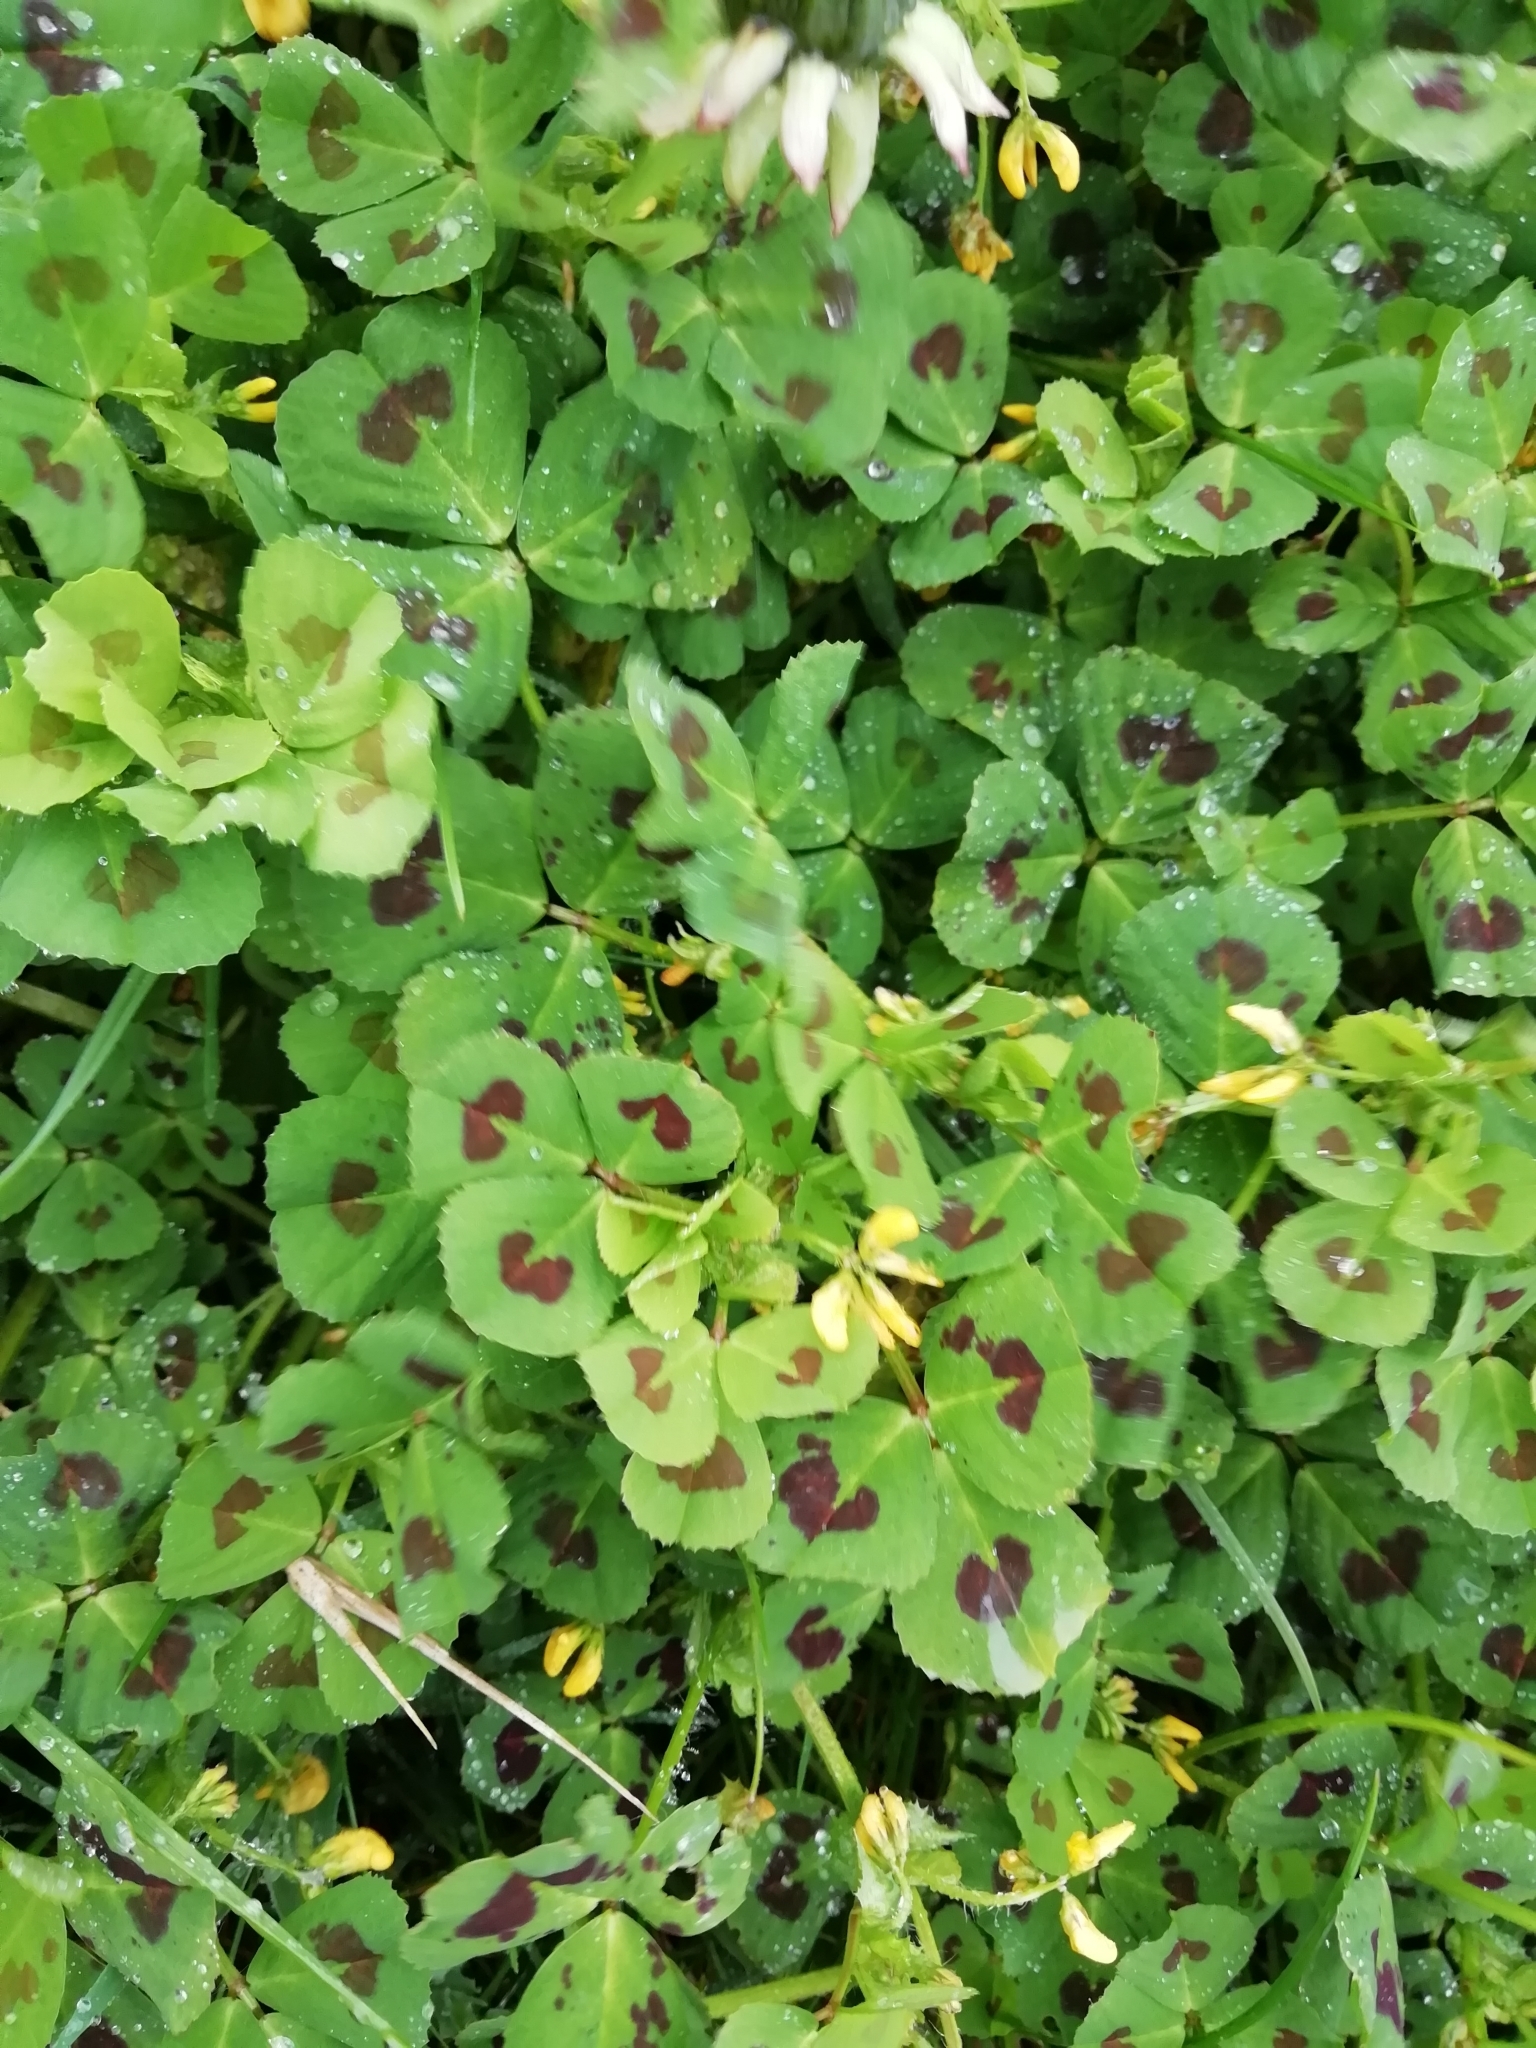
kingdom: Plantae
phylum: Tracheophyta
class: Magnoliopsida
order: Fabales
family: Fabaceae
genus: Medicago
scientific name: Medicago arabica
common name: Spotted medick
